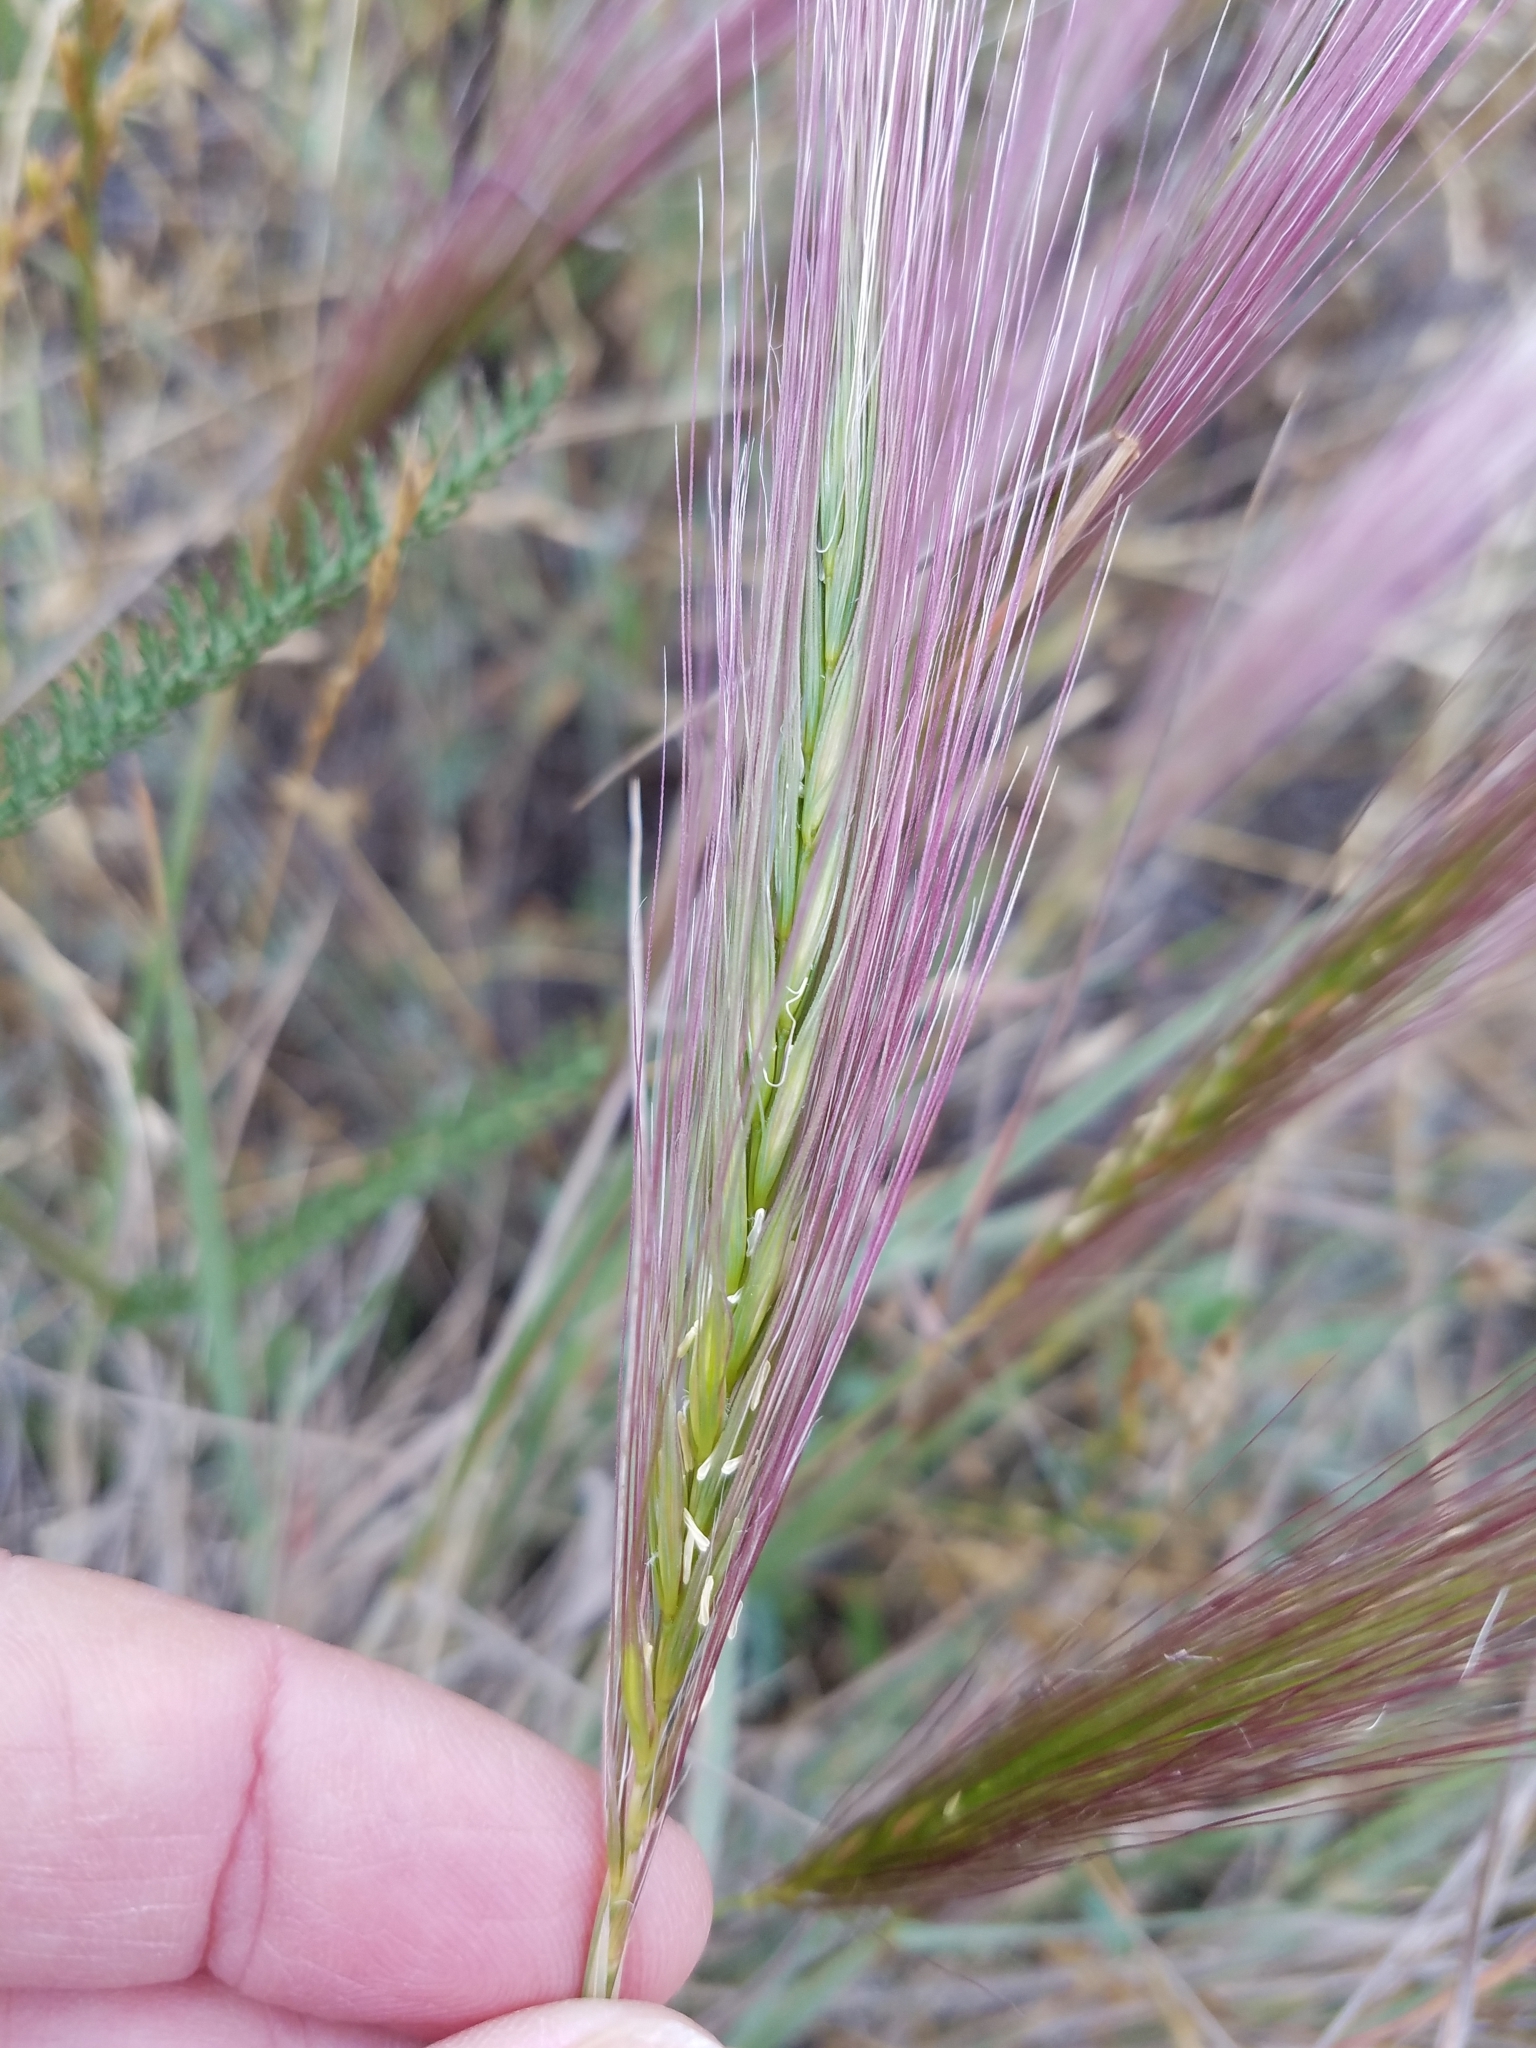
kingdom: Plantae
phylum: Tracheophyta
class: Liliopsida
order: Poales
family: Poaceae
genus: Elymus
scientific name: Elymus multisetus
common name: Big squirreltail
